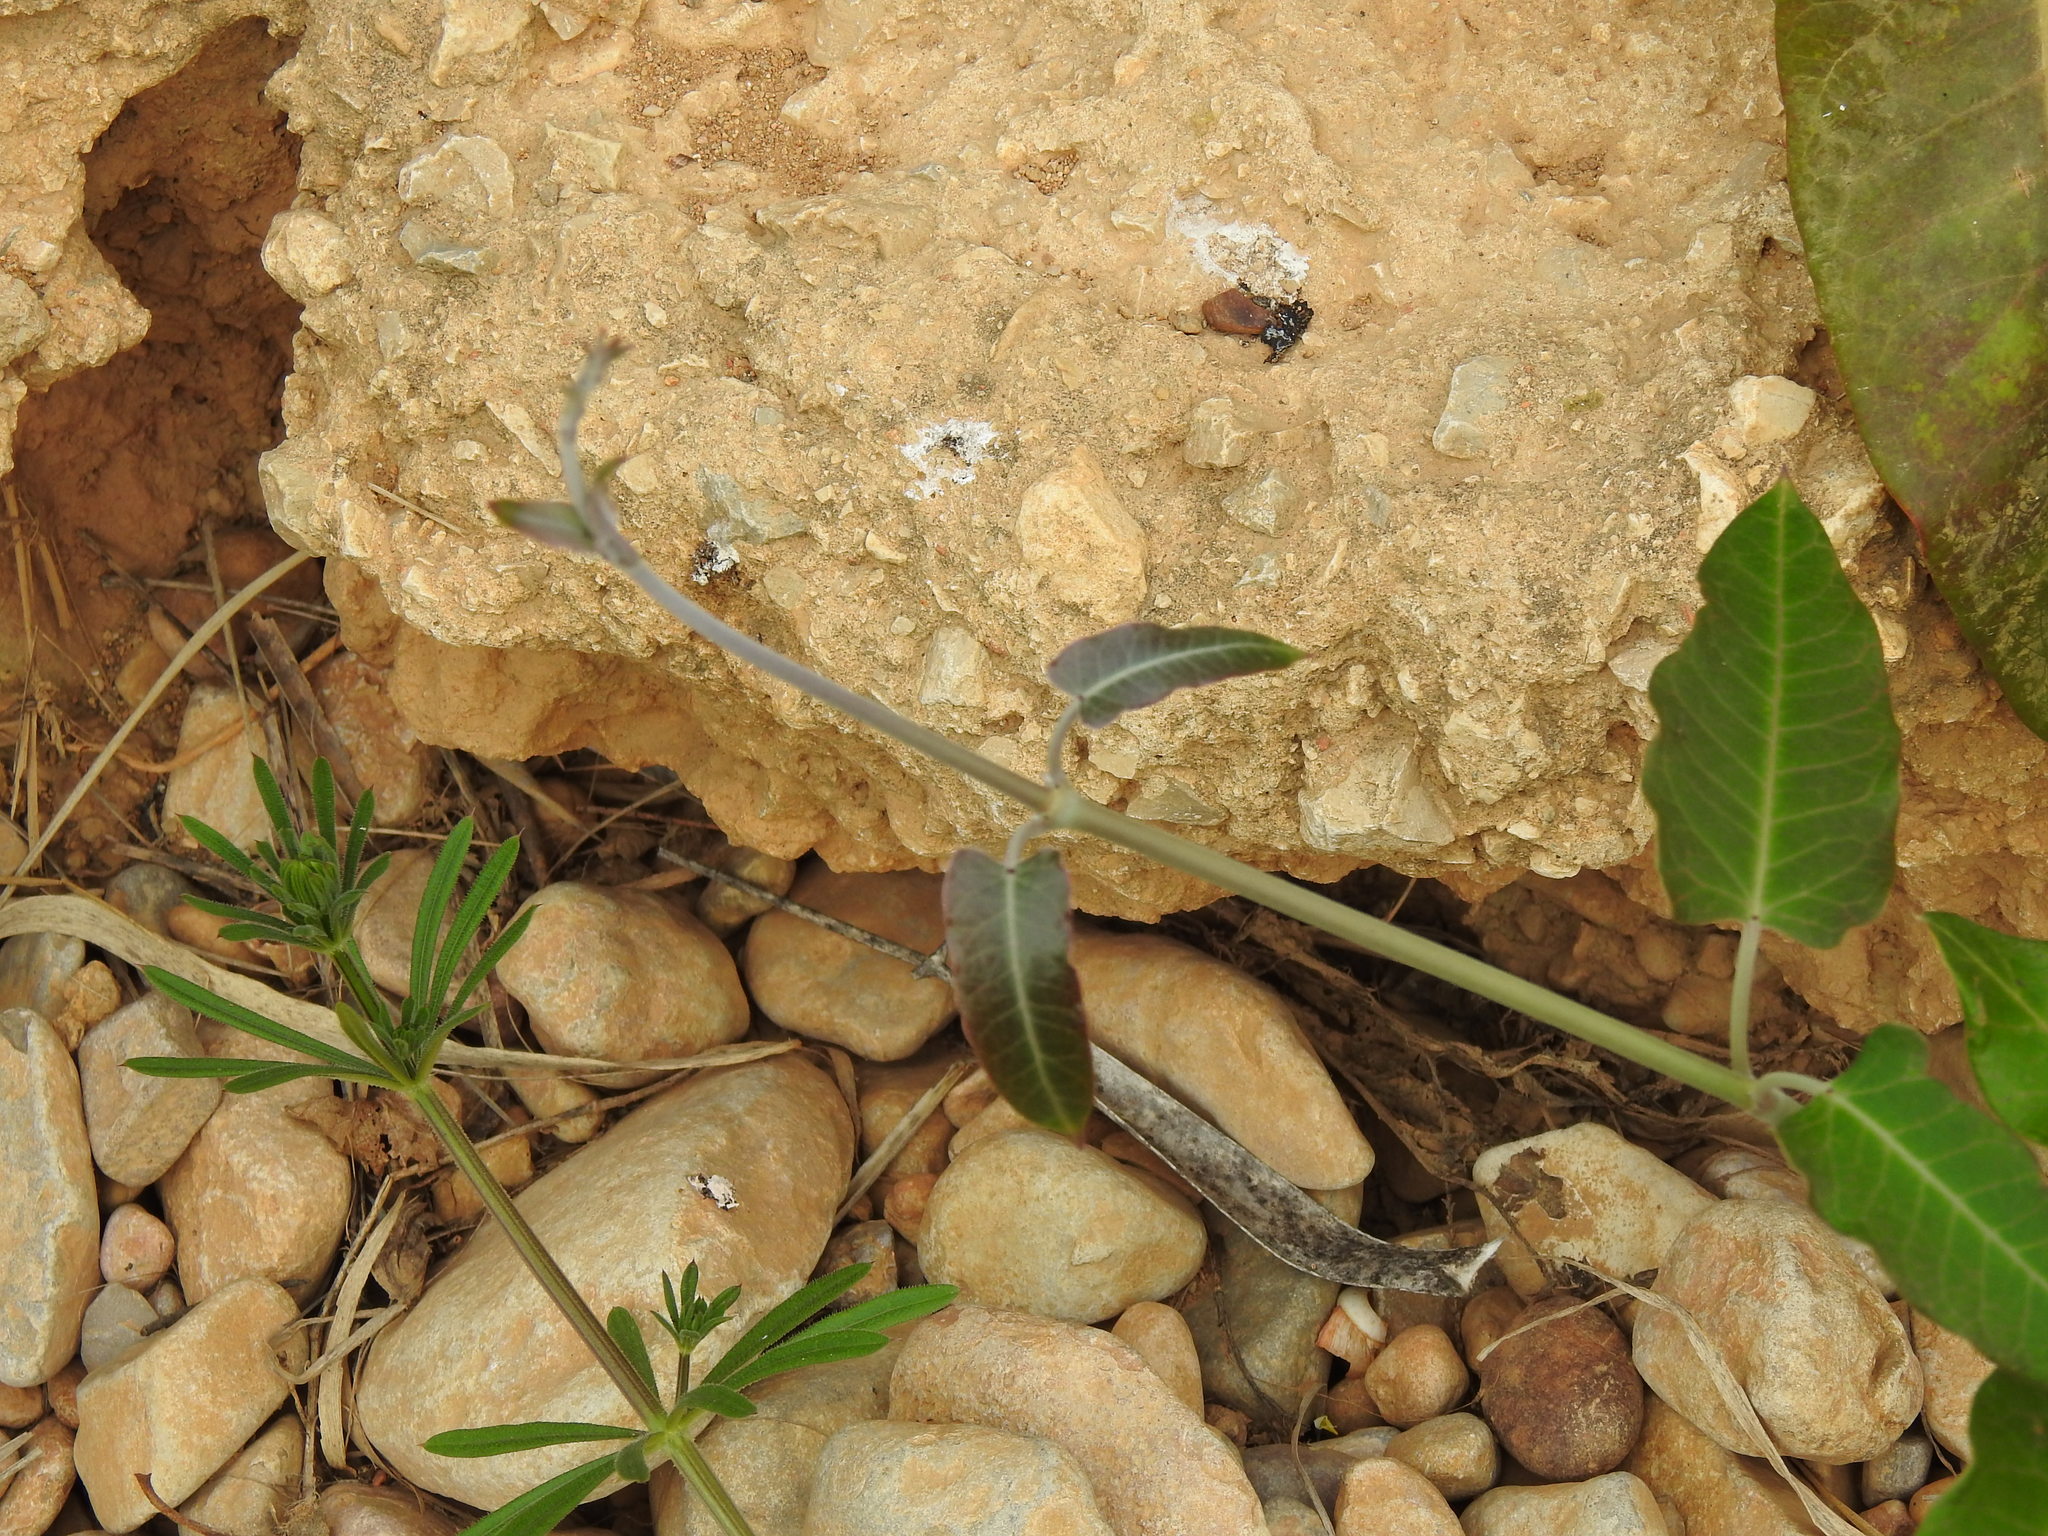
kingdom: Plantae
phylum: Tracheophyta
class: Magnoliopsida
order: Gentianales
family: Apocynaceae
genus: Araujia
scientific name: Araujia sericifera
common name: White bladderflower
